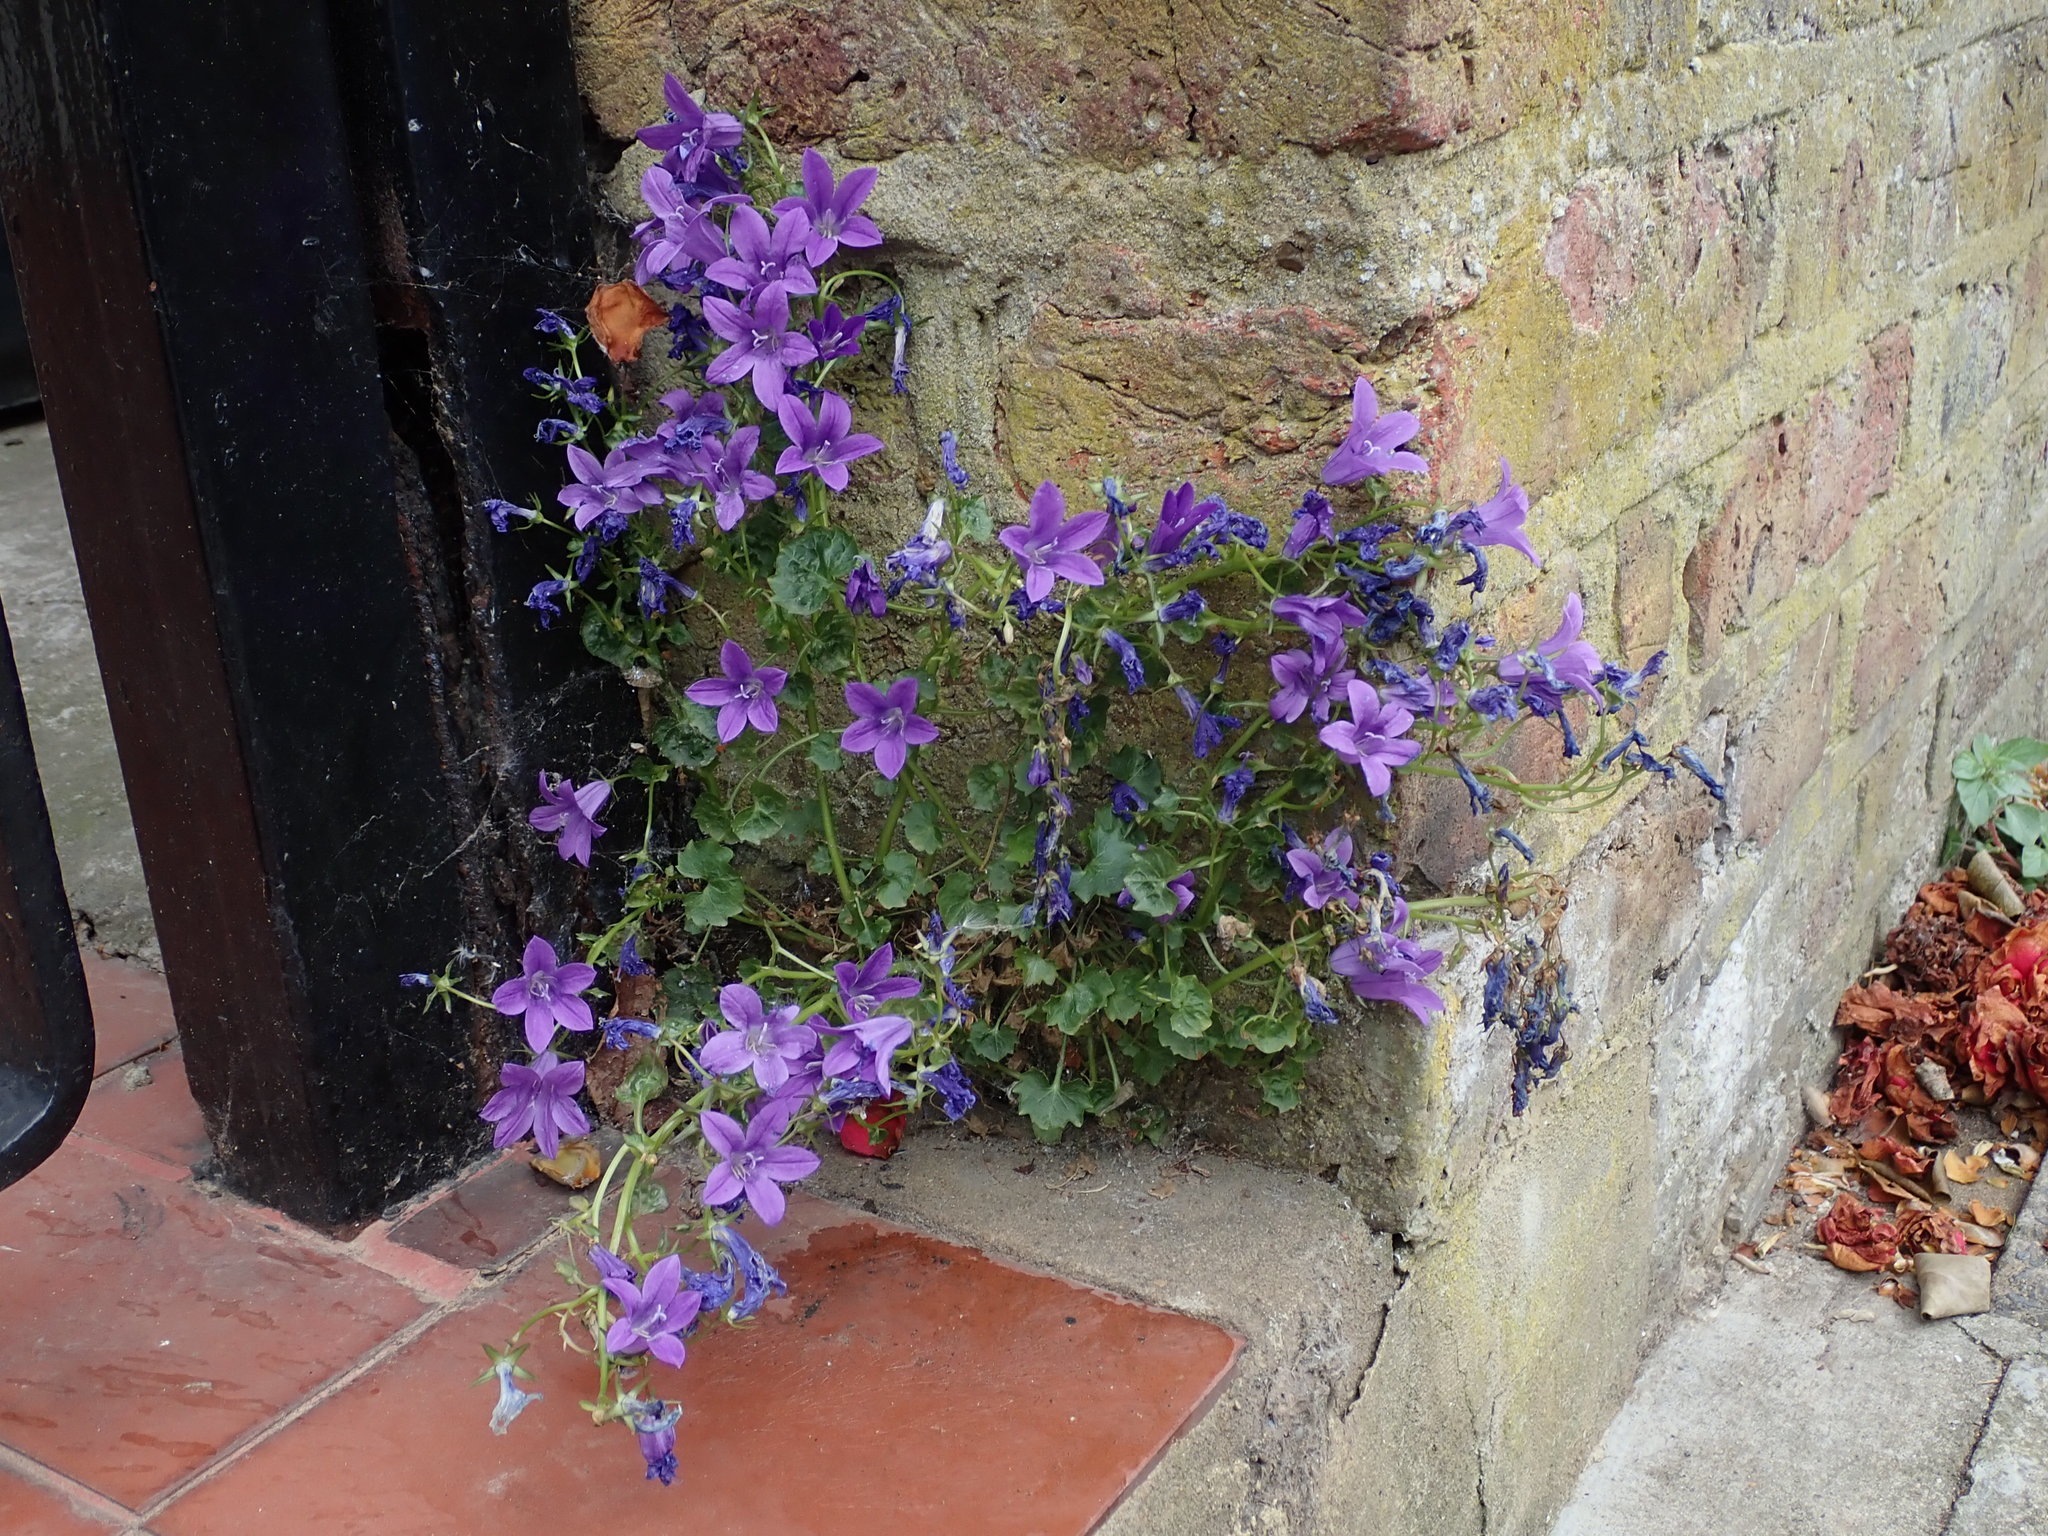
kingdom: Plantae
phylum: Tracheophyta
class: Magnoliopsida
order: Asterales
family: Campanulaceae
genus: Campanula
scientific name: Campanula portenschlagiana
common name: Adria bellflower
